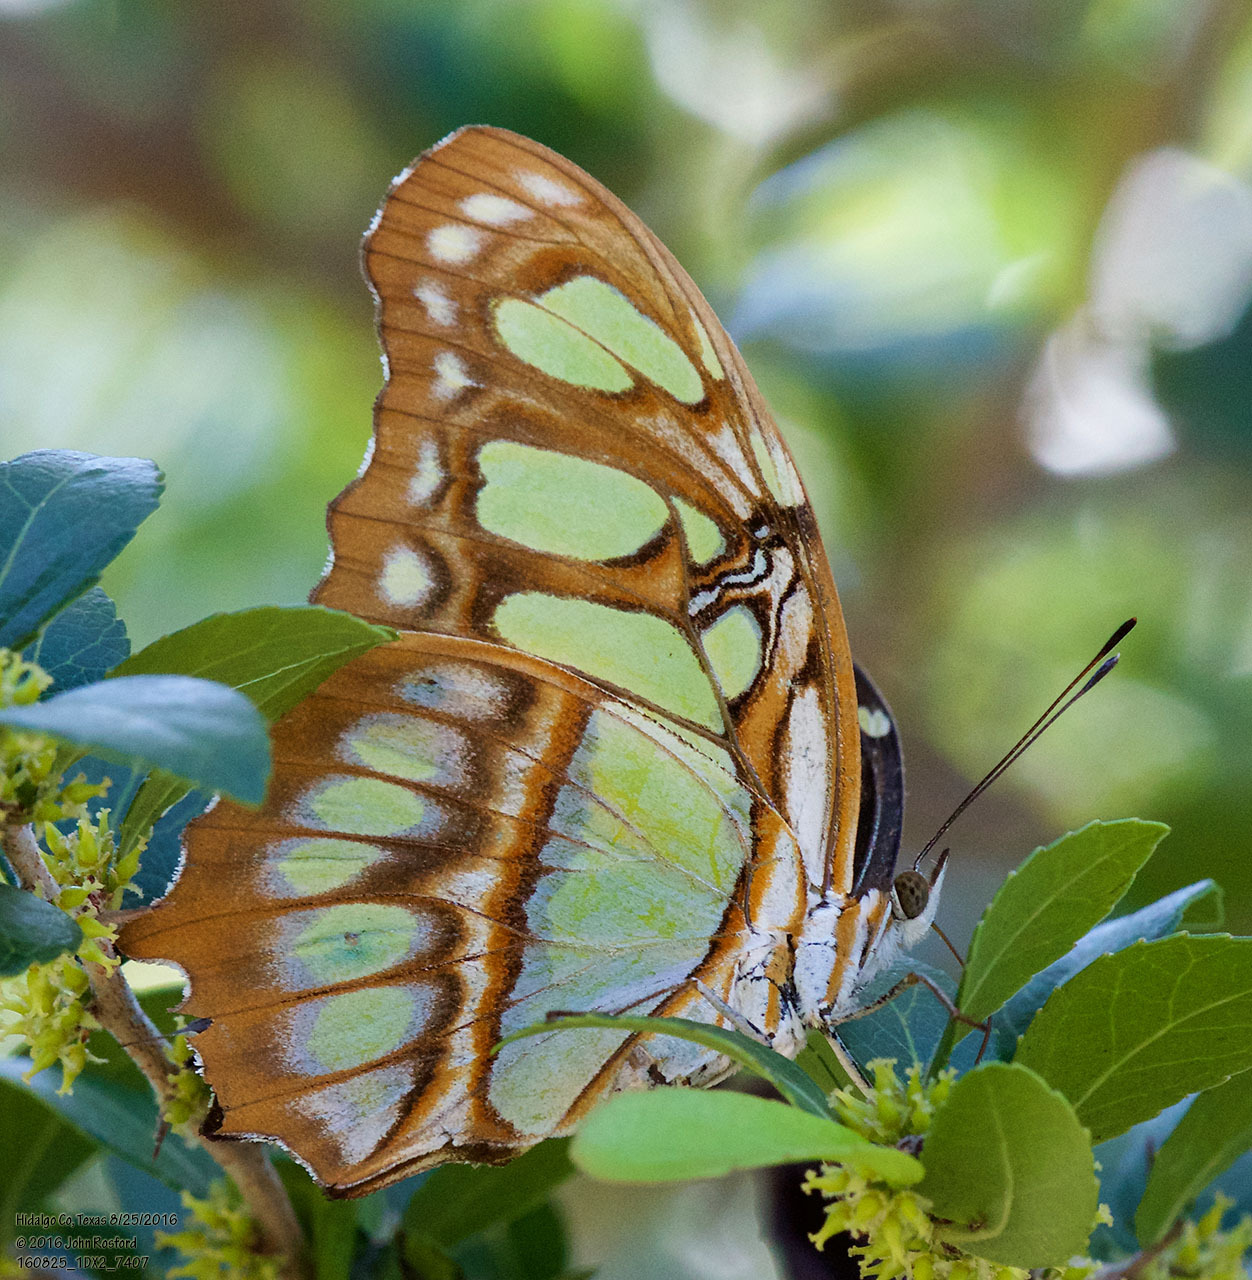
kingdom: Animalia
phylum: Arthropoda
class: Insecta
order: Lepidoptera
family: Nymphalidae
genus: Siproeta
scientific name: Siproeta stelenes
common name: Malachite
